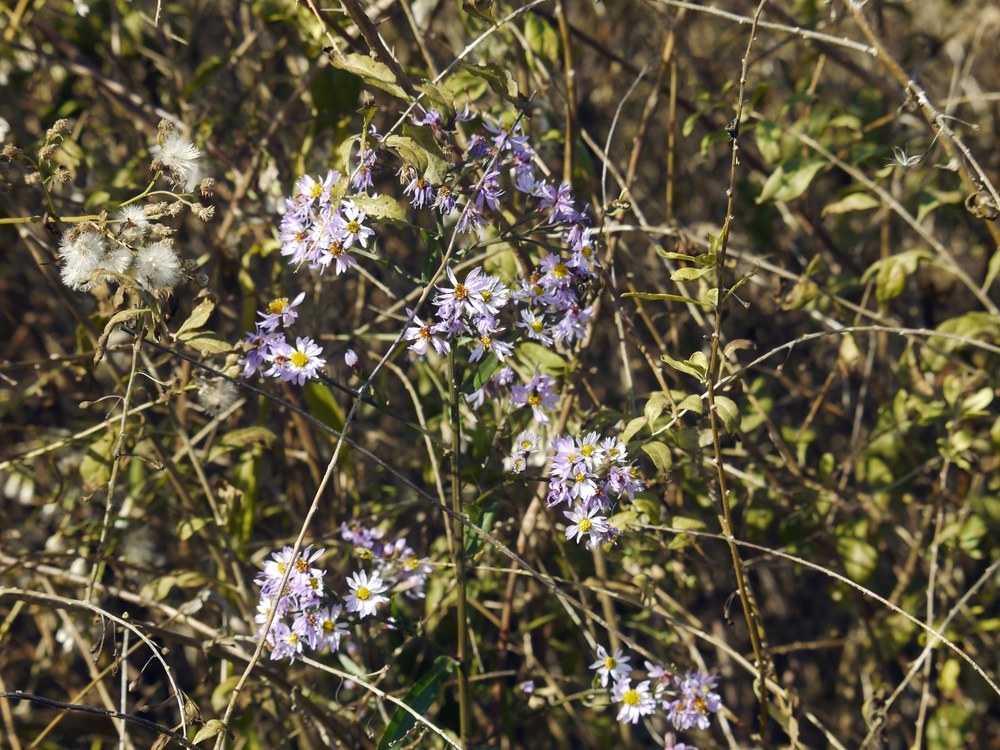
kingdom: Plantae
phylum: Tracheophyta
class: Magnoliopsida
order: Asterales
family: Asteraceae
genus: Tripolium
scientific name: Tripolium pannonicum
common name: Sea aster
